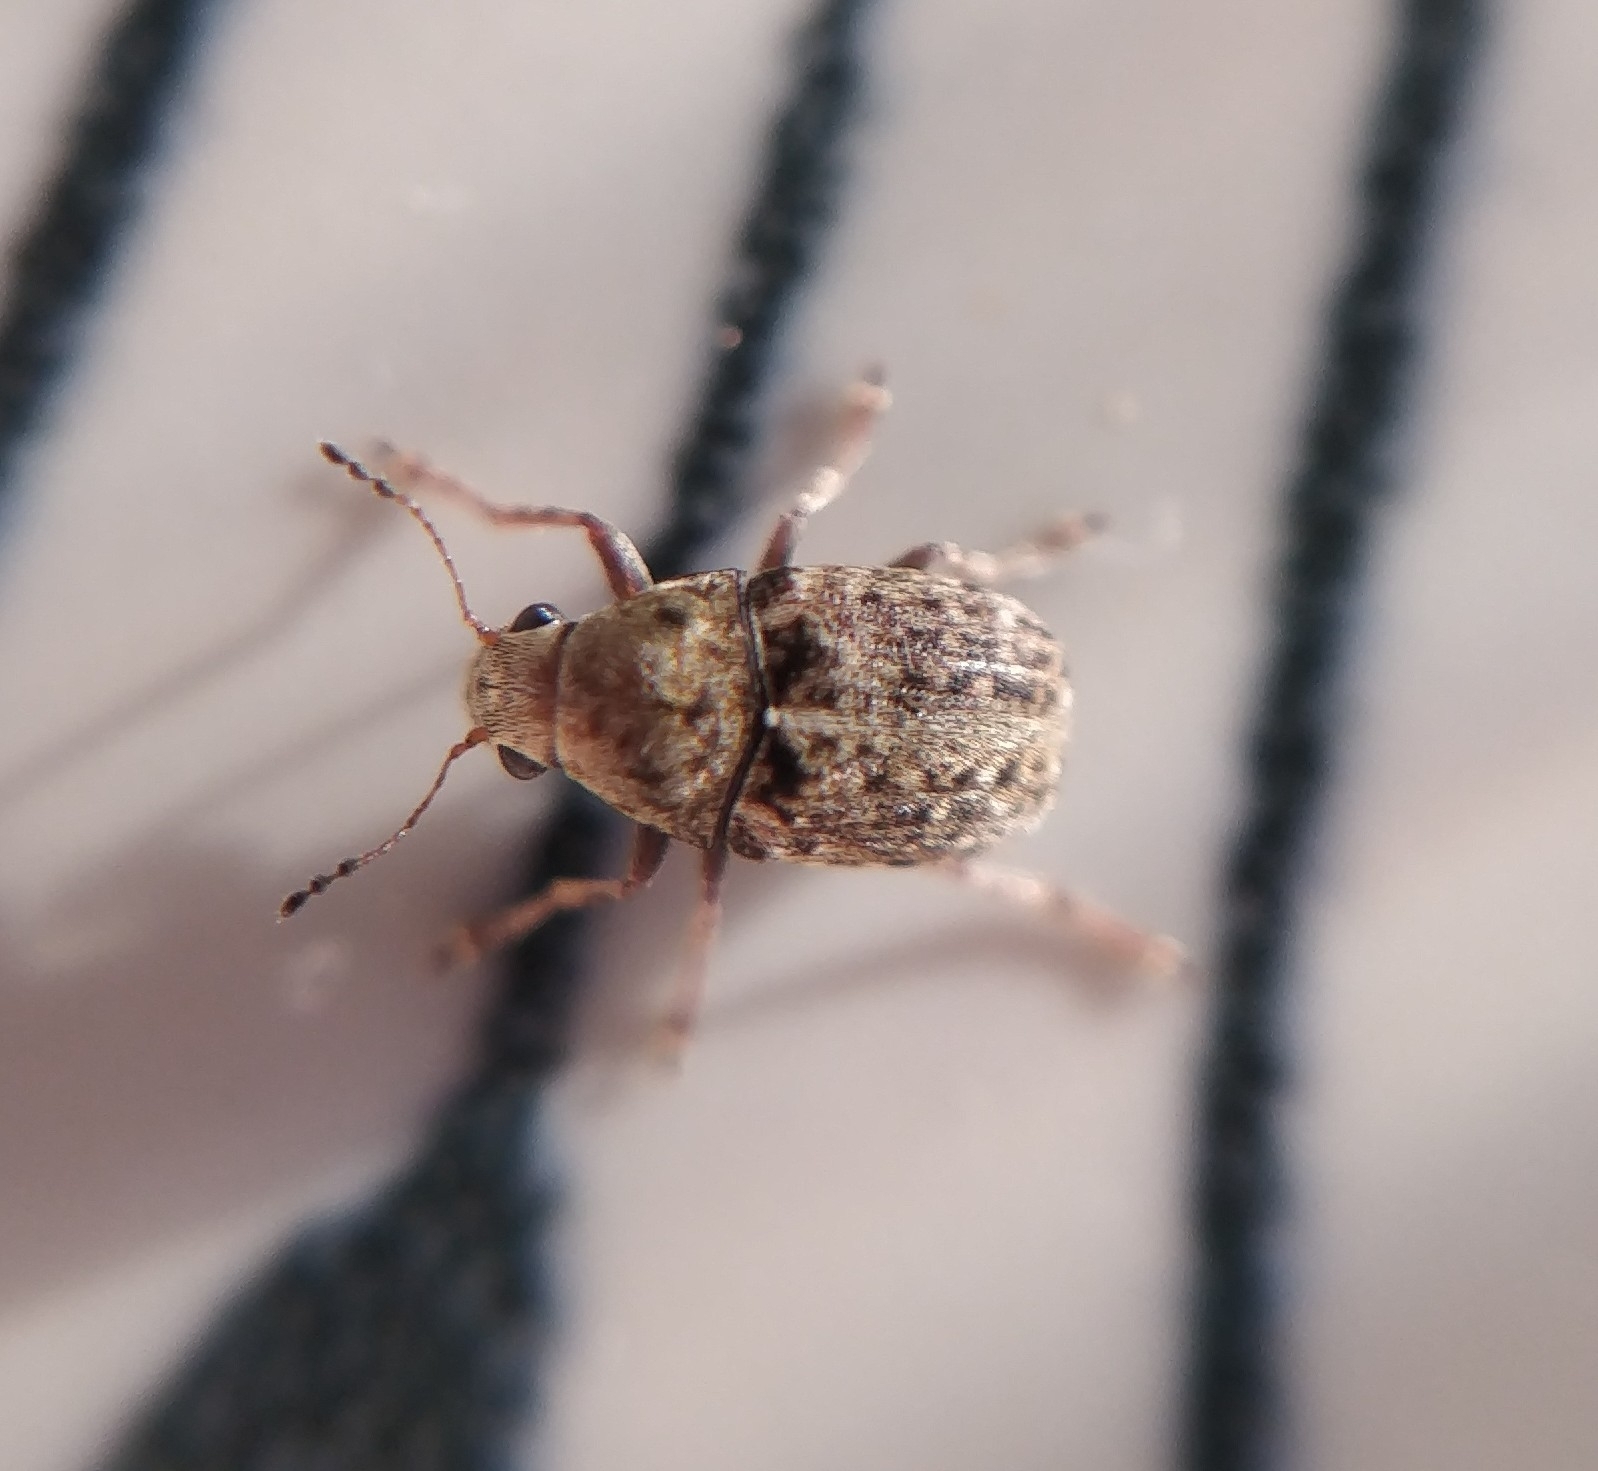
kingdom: Animalia
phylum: Arthropoda
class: Insecta
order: Coleoptera
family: Anthribidae
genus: Araecerus
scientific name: Araecerus fasciculatus
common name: Coffee bean weevil
